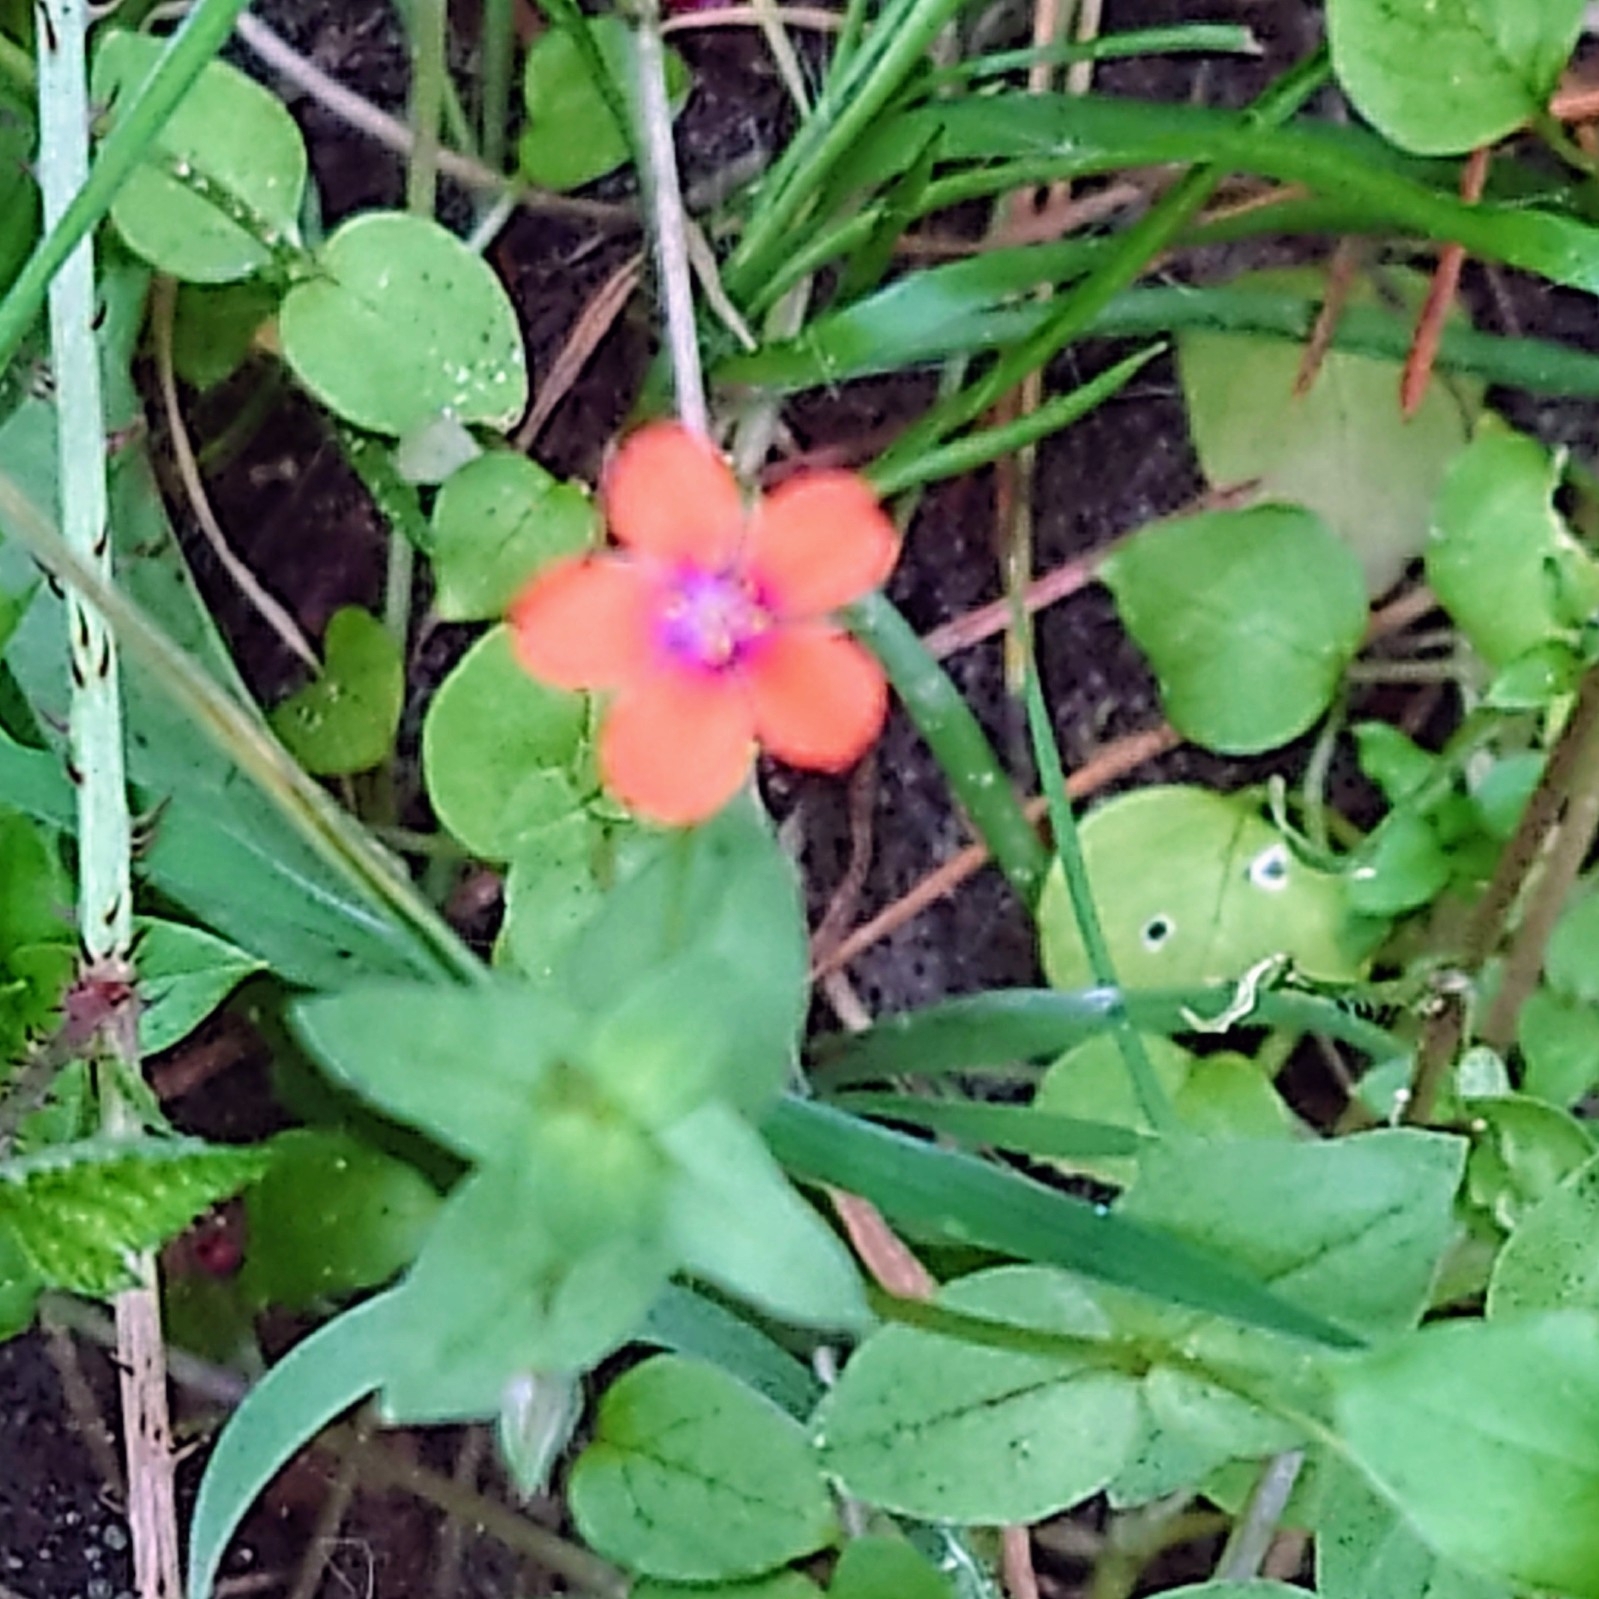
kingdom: Plantae
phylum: Tracheophyta
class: Magnoliopsida
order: Ericales
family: Primulaceae
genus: Lysimachia
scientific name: Lysimachia arvensis
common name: Scarlet pimpernel
